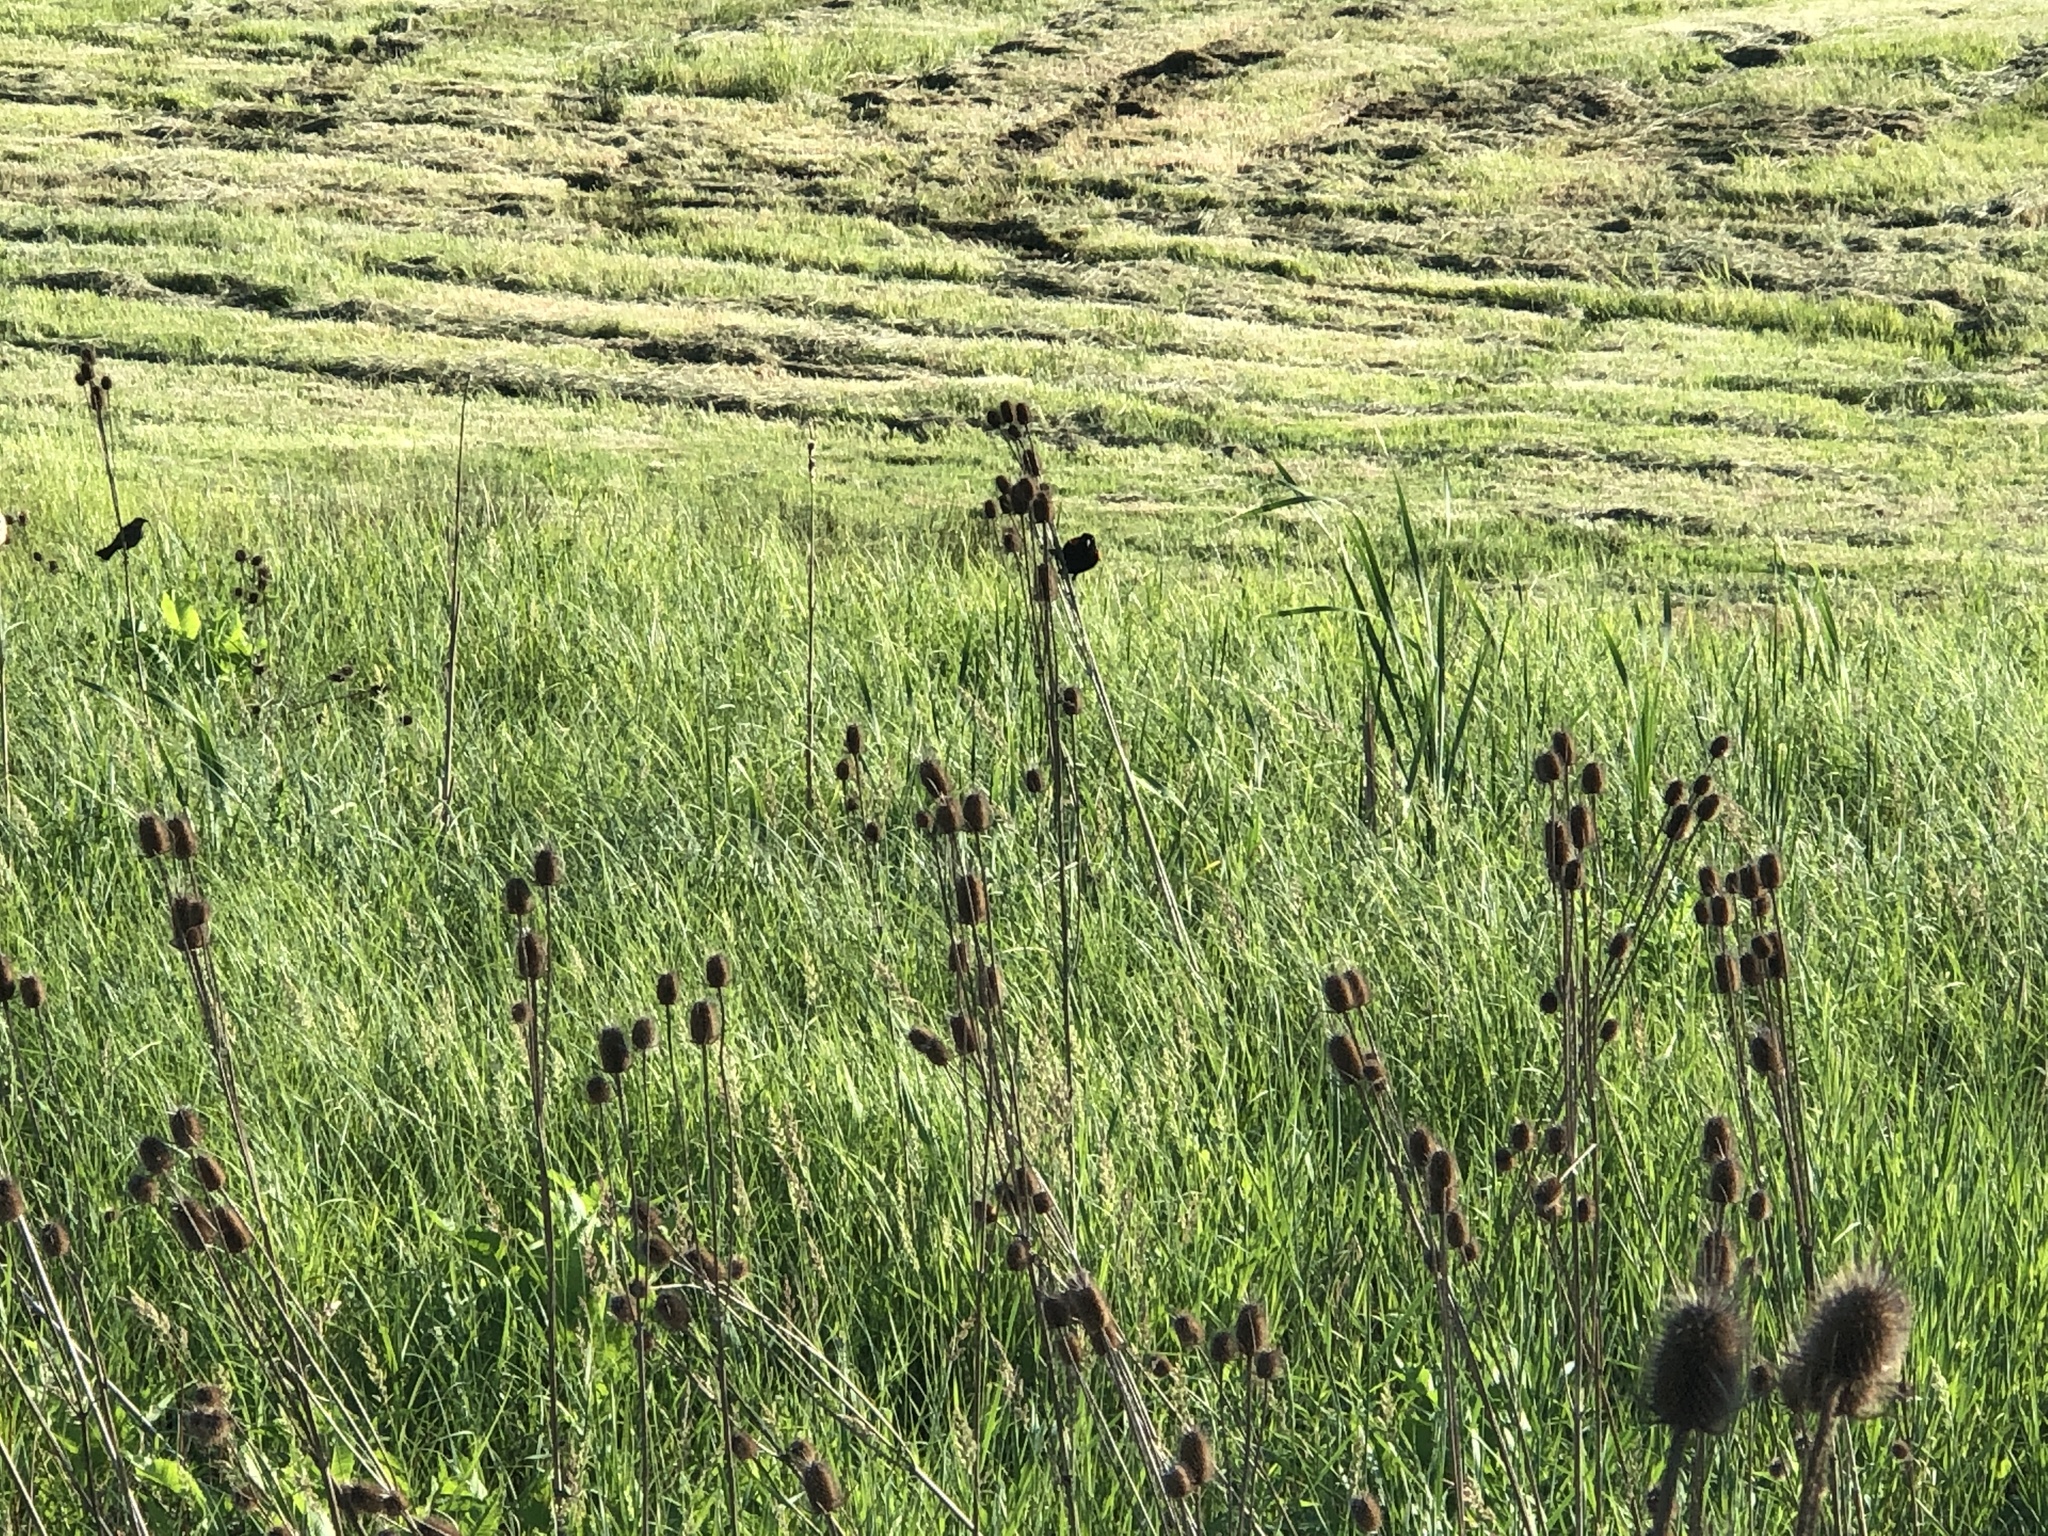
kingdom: Animalia
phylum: Chordata
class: Aves
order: Passeriformes
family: Icteridae
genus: Agelaius
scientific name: Agelaius phoeniceus
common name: Red-winged blackbird
